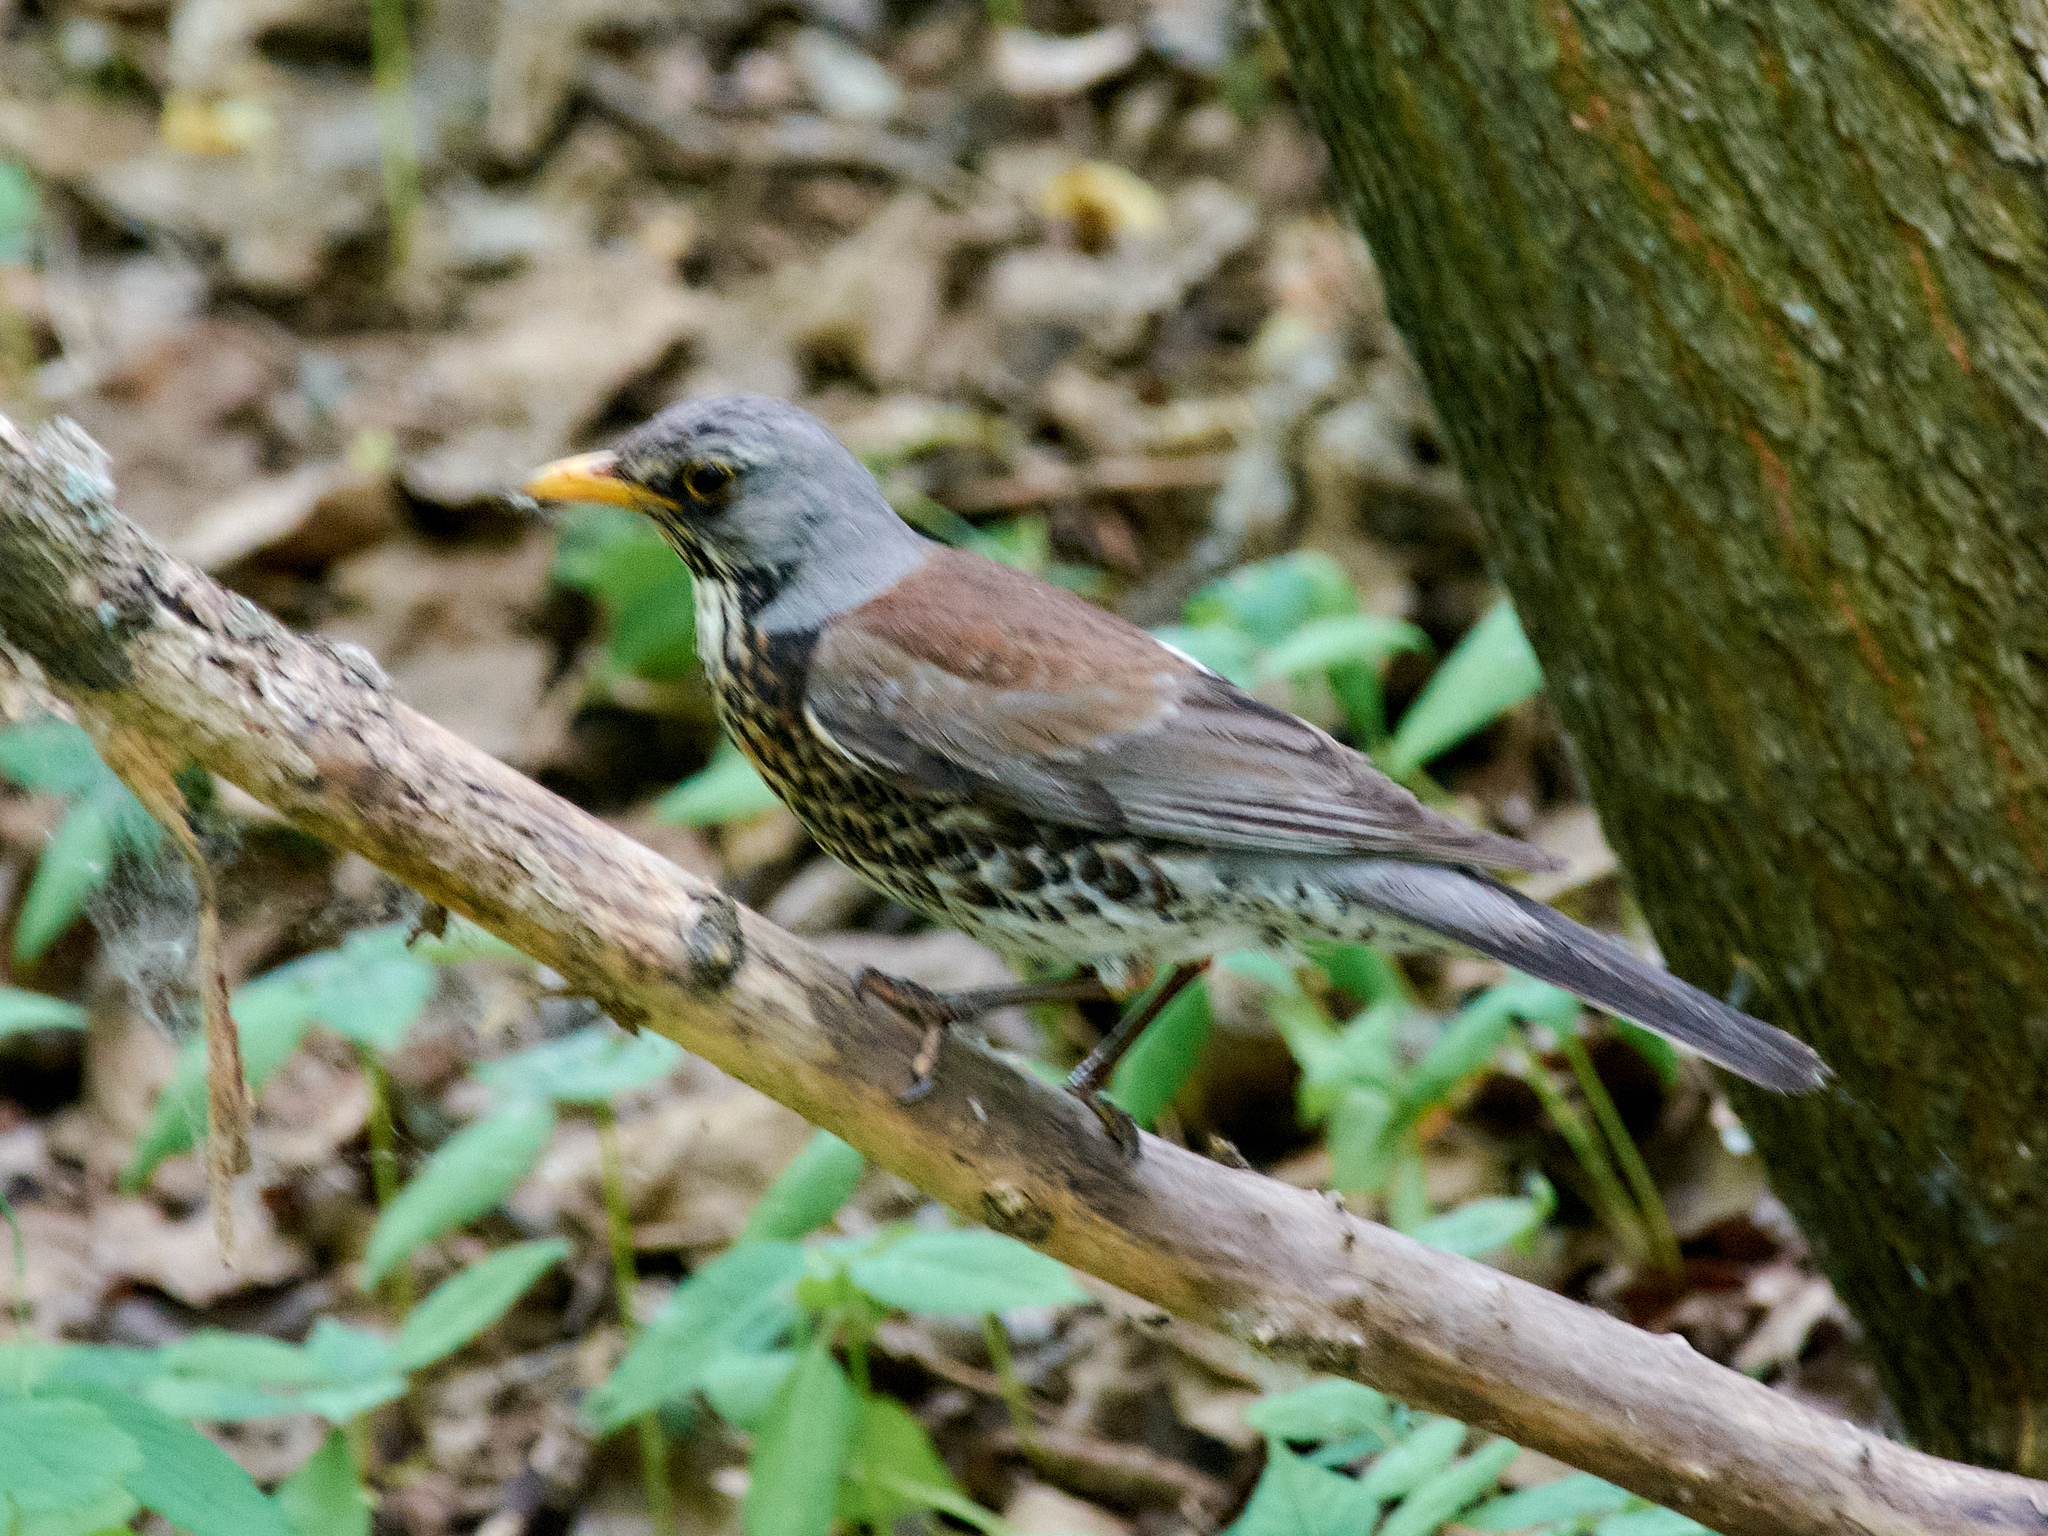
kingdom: Animalia
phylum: Chordata
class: Aves
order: Passeriformes
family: Turdidae
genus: Turdus
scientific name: Turdus pilaris
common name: Fieldfare
